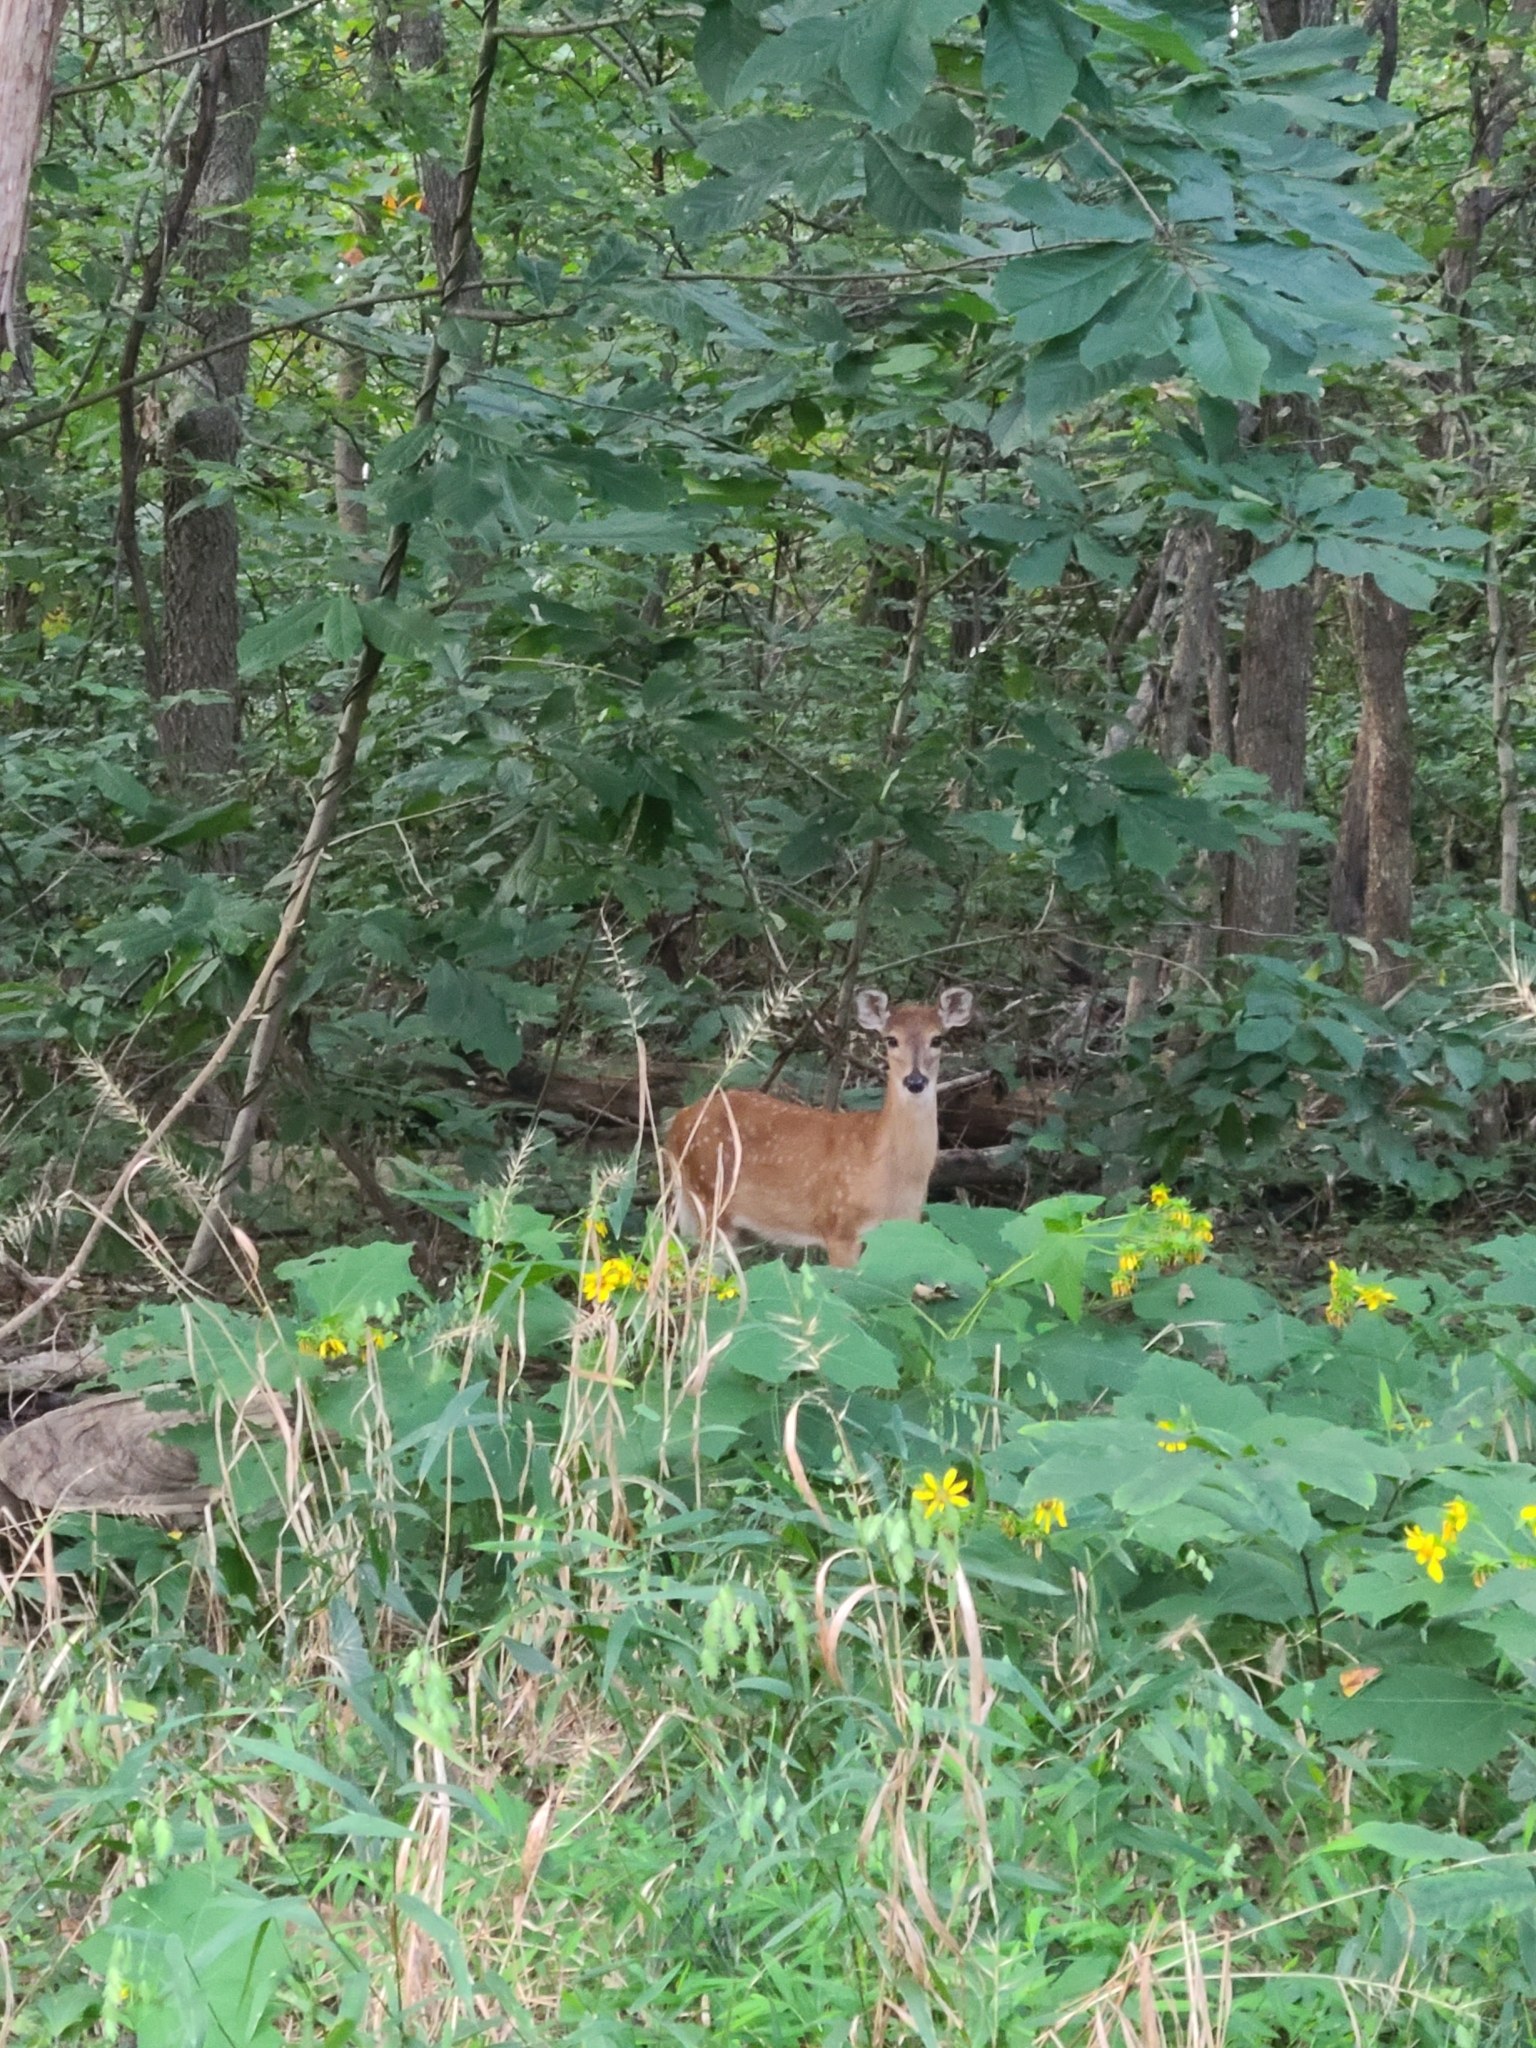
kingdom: Animalia
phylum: Chordata
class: Mammalia
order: Artiodactyla
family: Cervidae
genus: Odocoileus
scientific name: Odocoileus virginianus
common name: White-tailed deer
